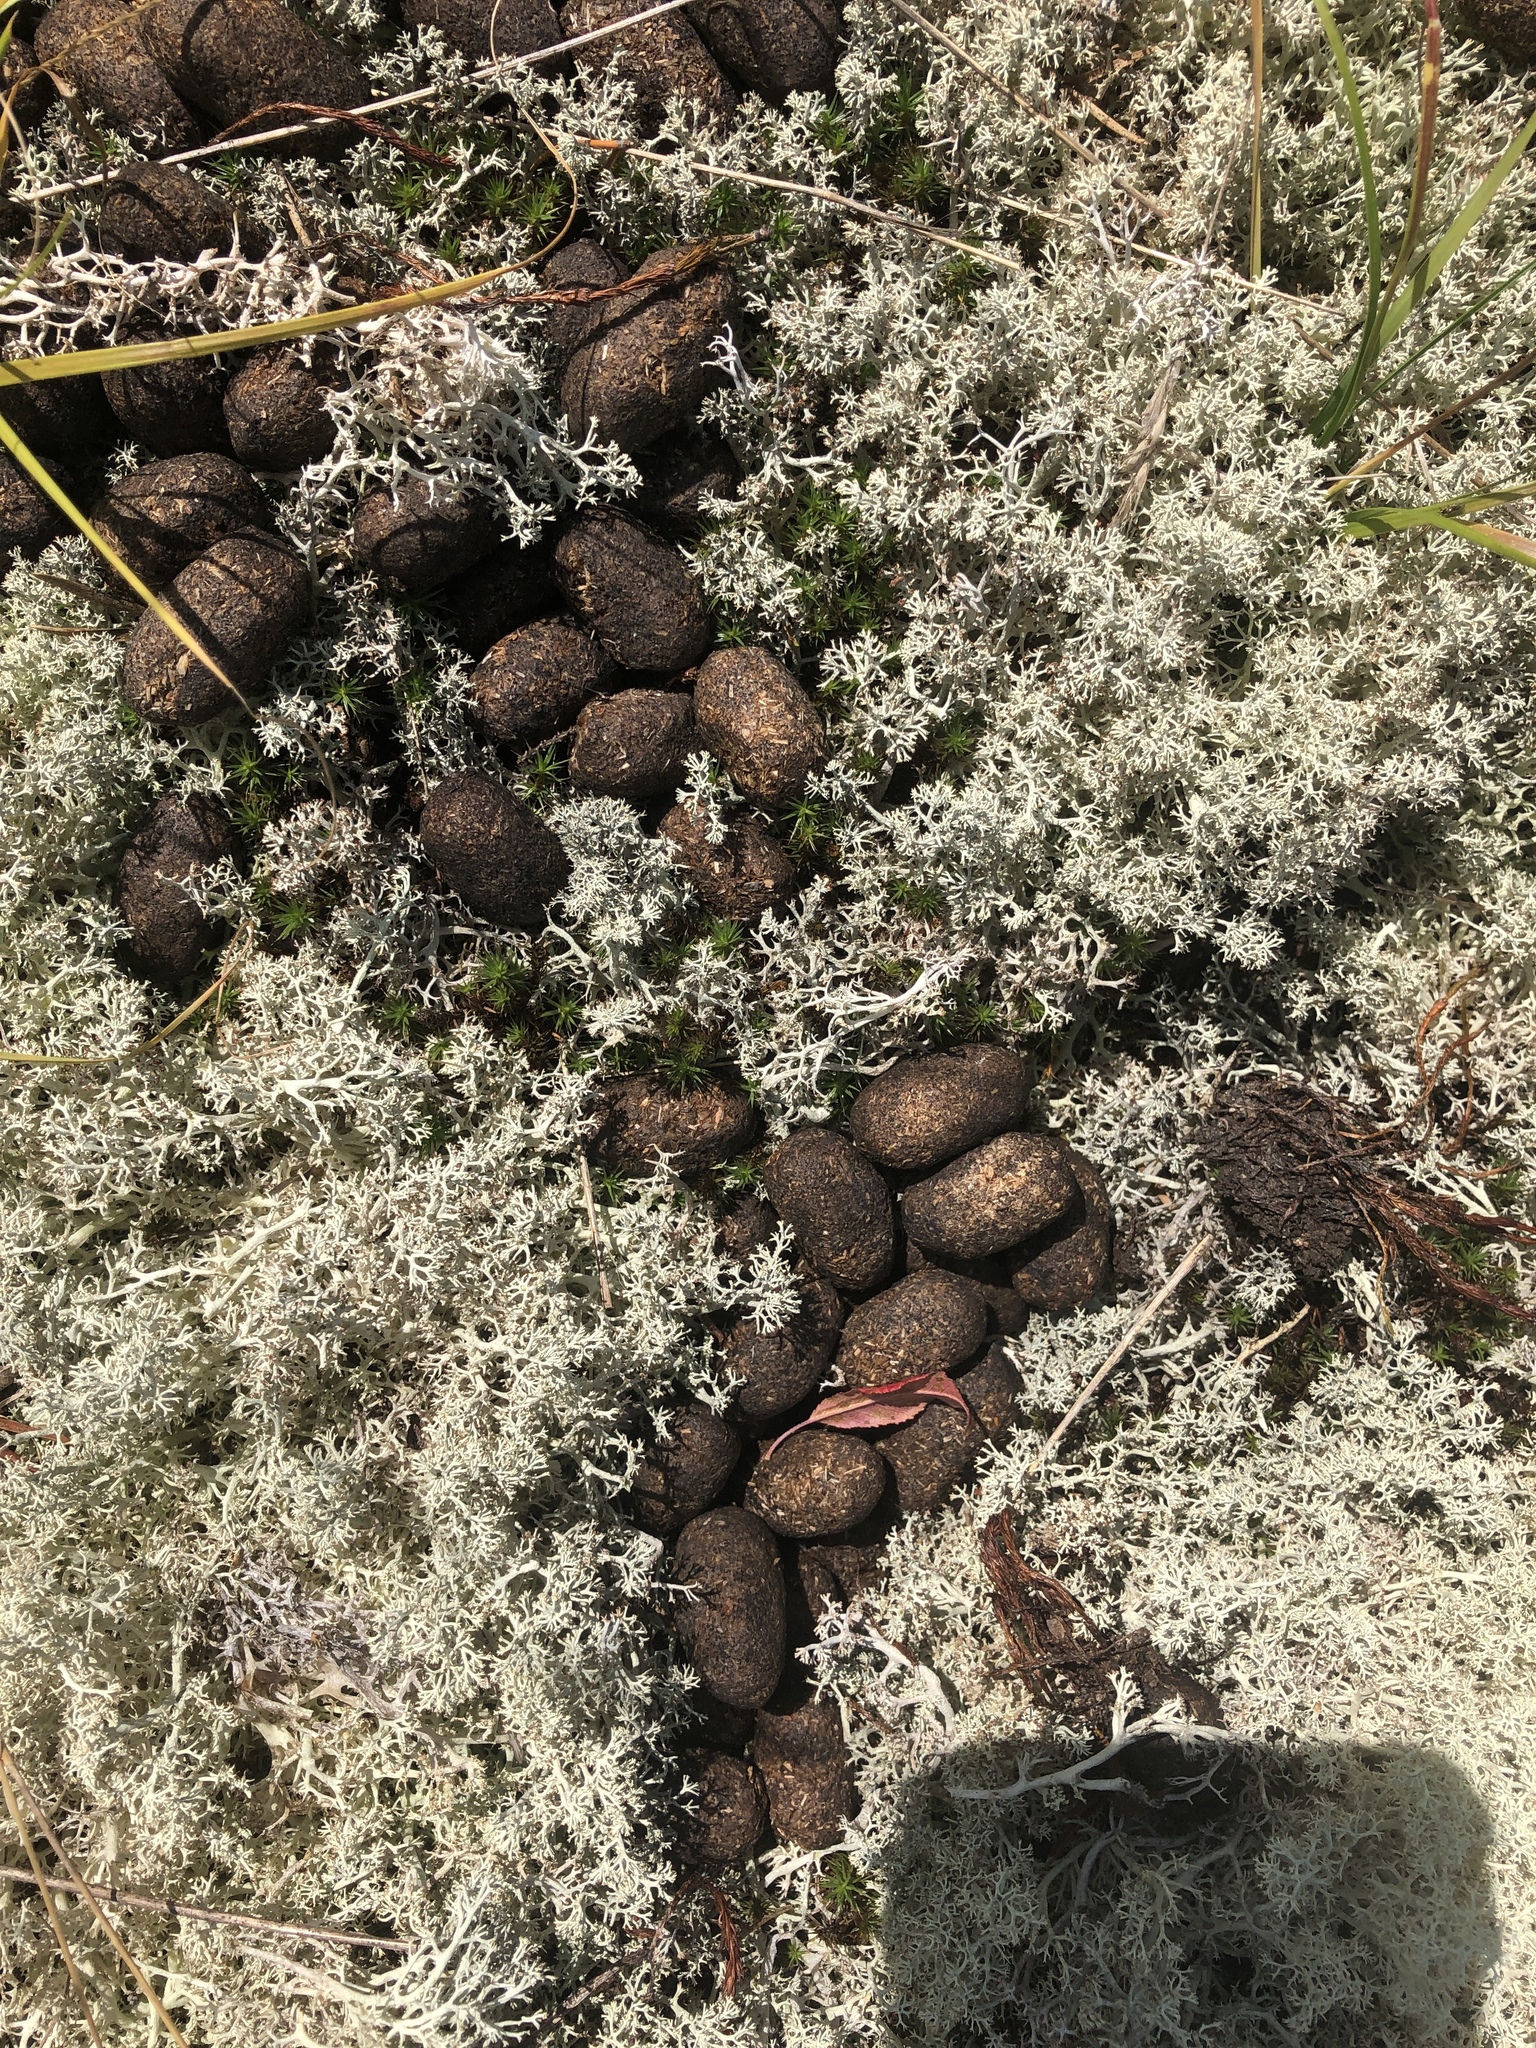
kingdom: Animalia
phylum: Chordata
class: Mammalia
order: Artiodactyla
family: Cervidae
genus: Alces
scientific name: Alces alces
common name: Moose
